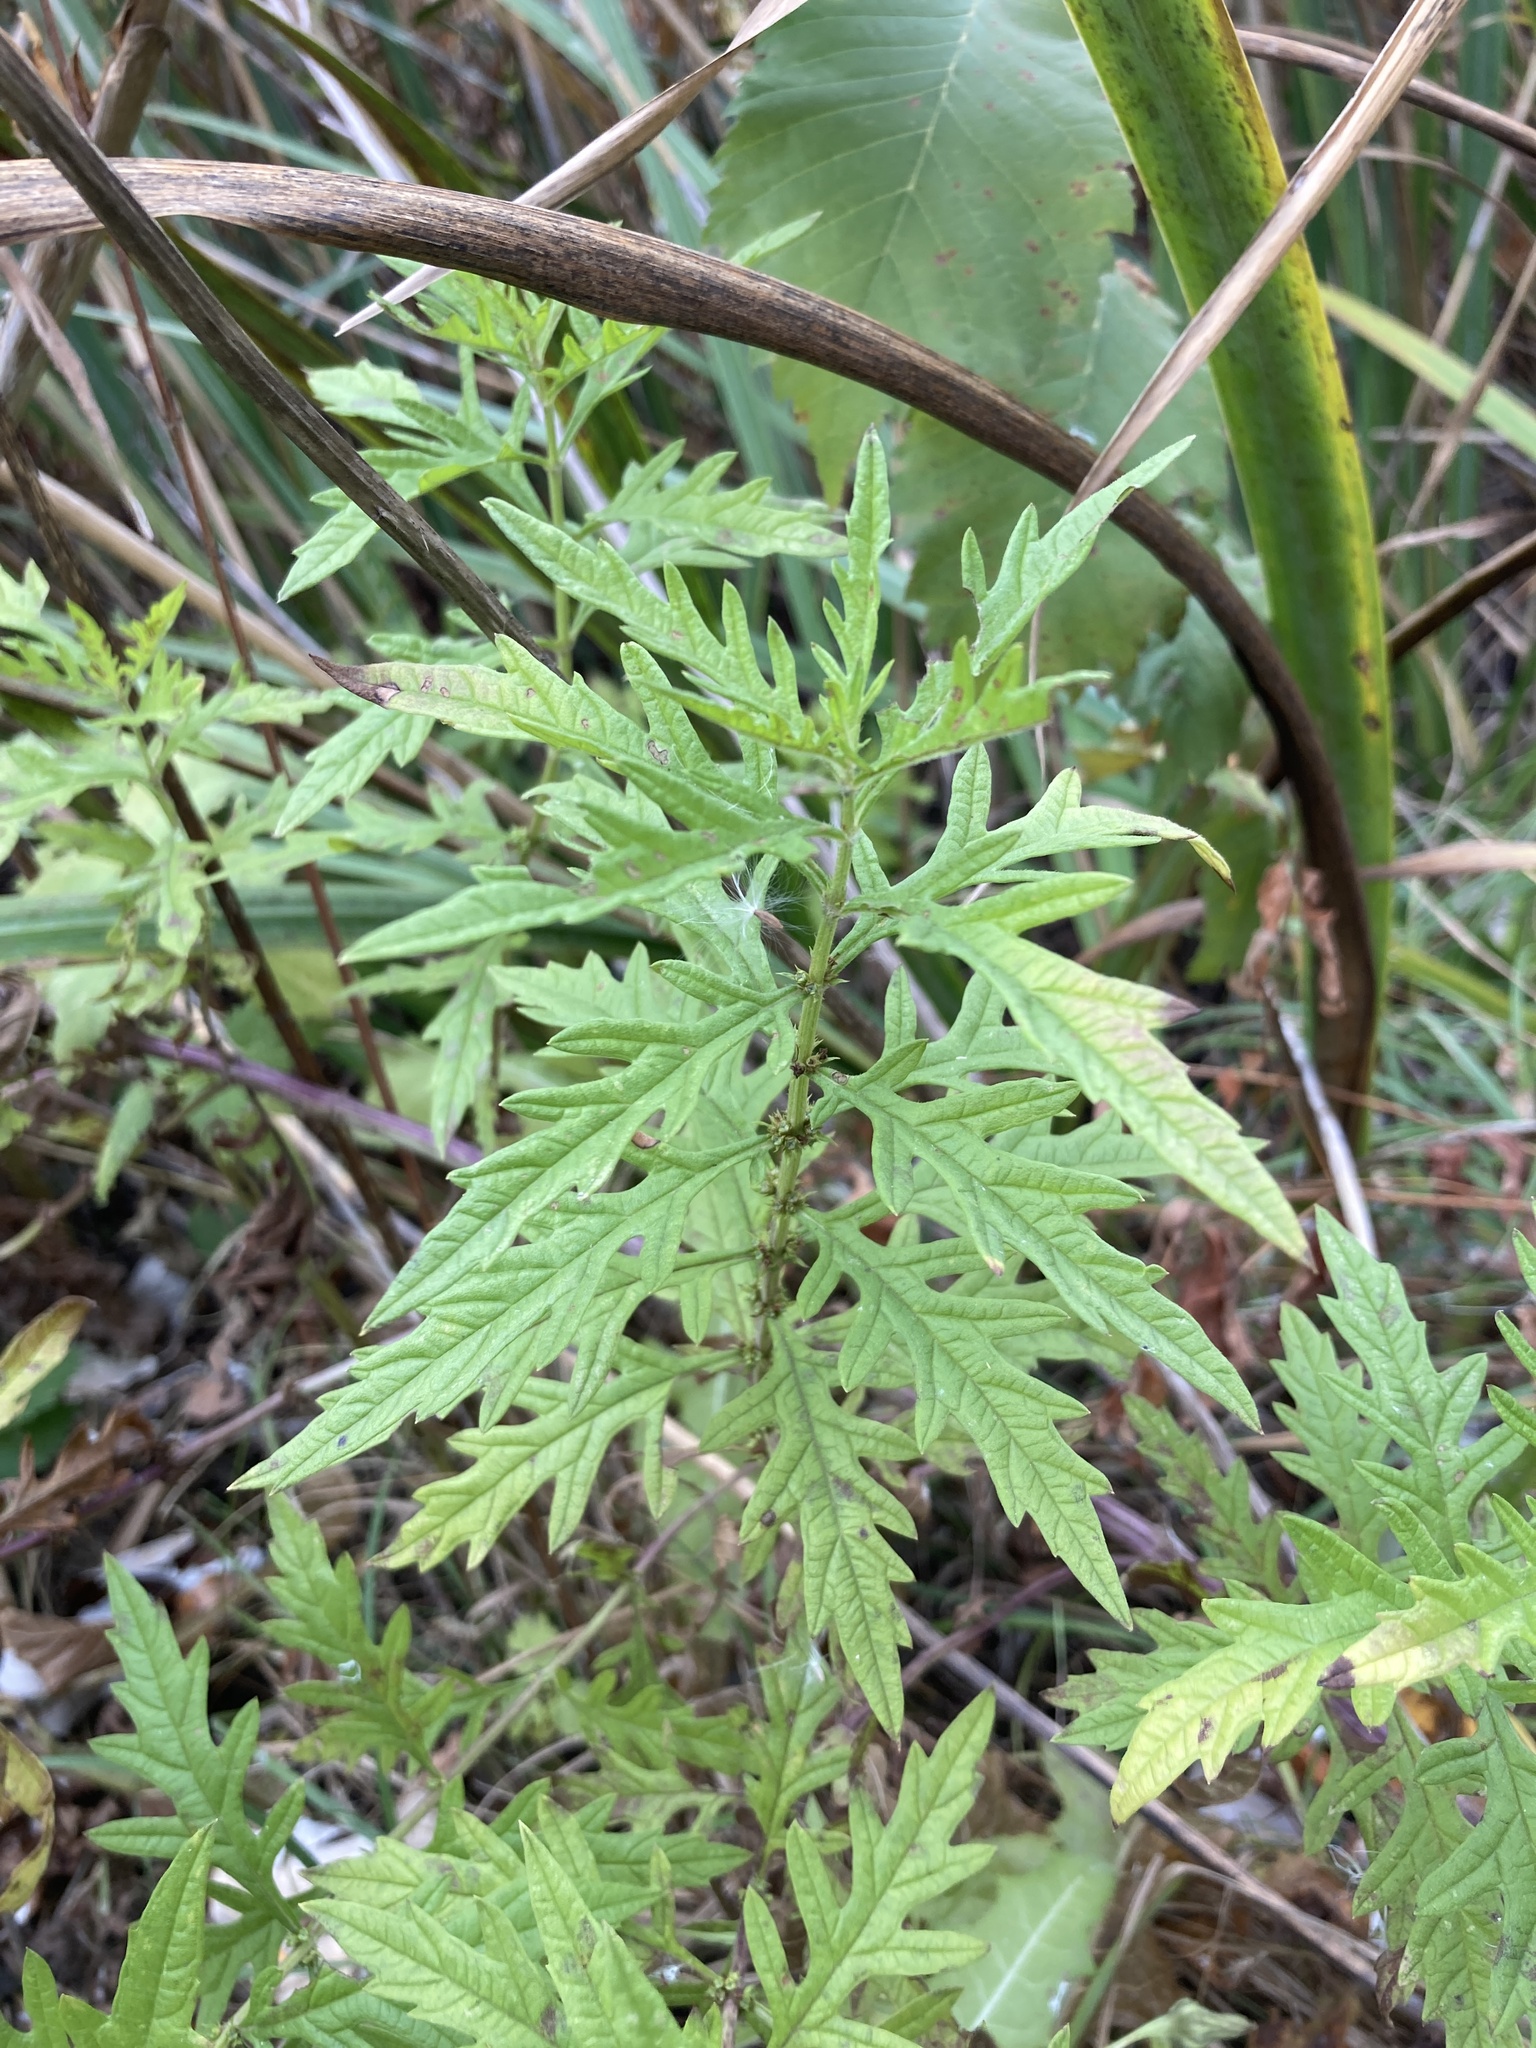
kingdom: Plantae
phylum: Tracheophyta
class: Magnoliopsida
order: Lamiales
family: Lamiaceae
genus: Lycopus
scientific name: Lycopus exaltatus
